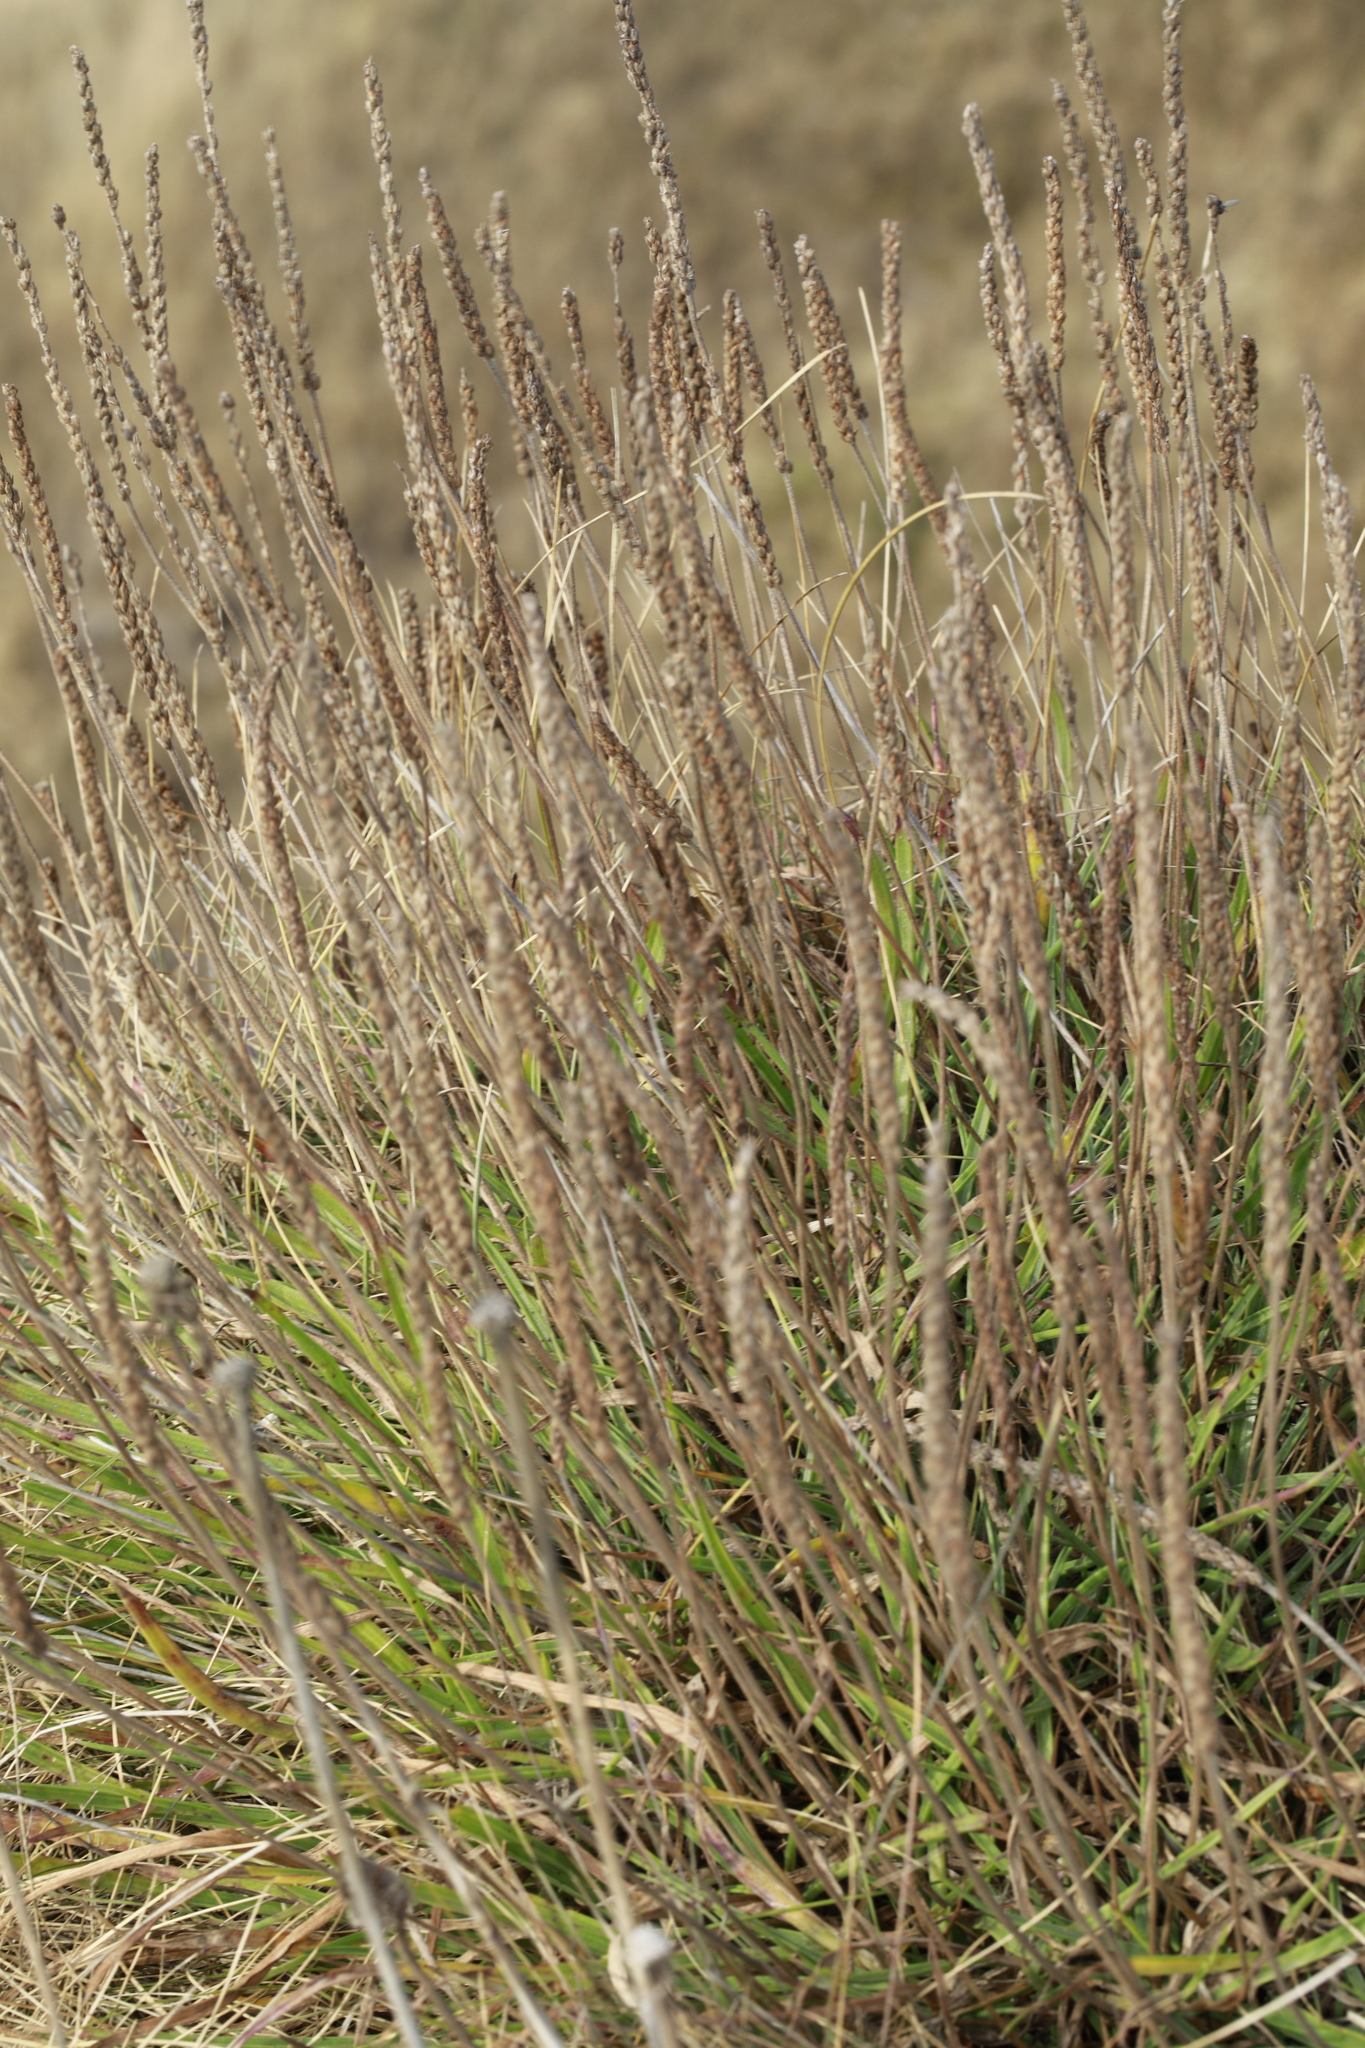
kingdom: Plantae
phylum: Tracheophyta
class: Magnoliopsida
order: Lamiales
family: Plantaginaceae
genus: Plantago
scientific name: Plantago maritima
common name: Sea plantain
